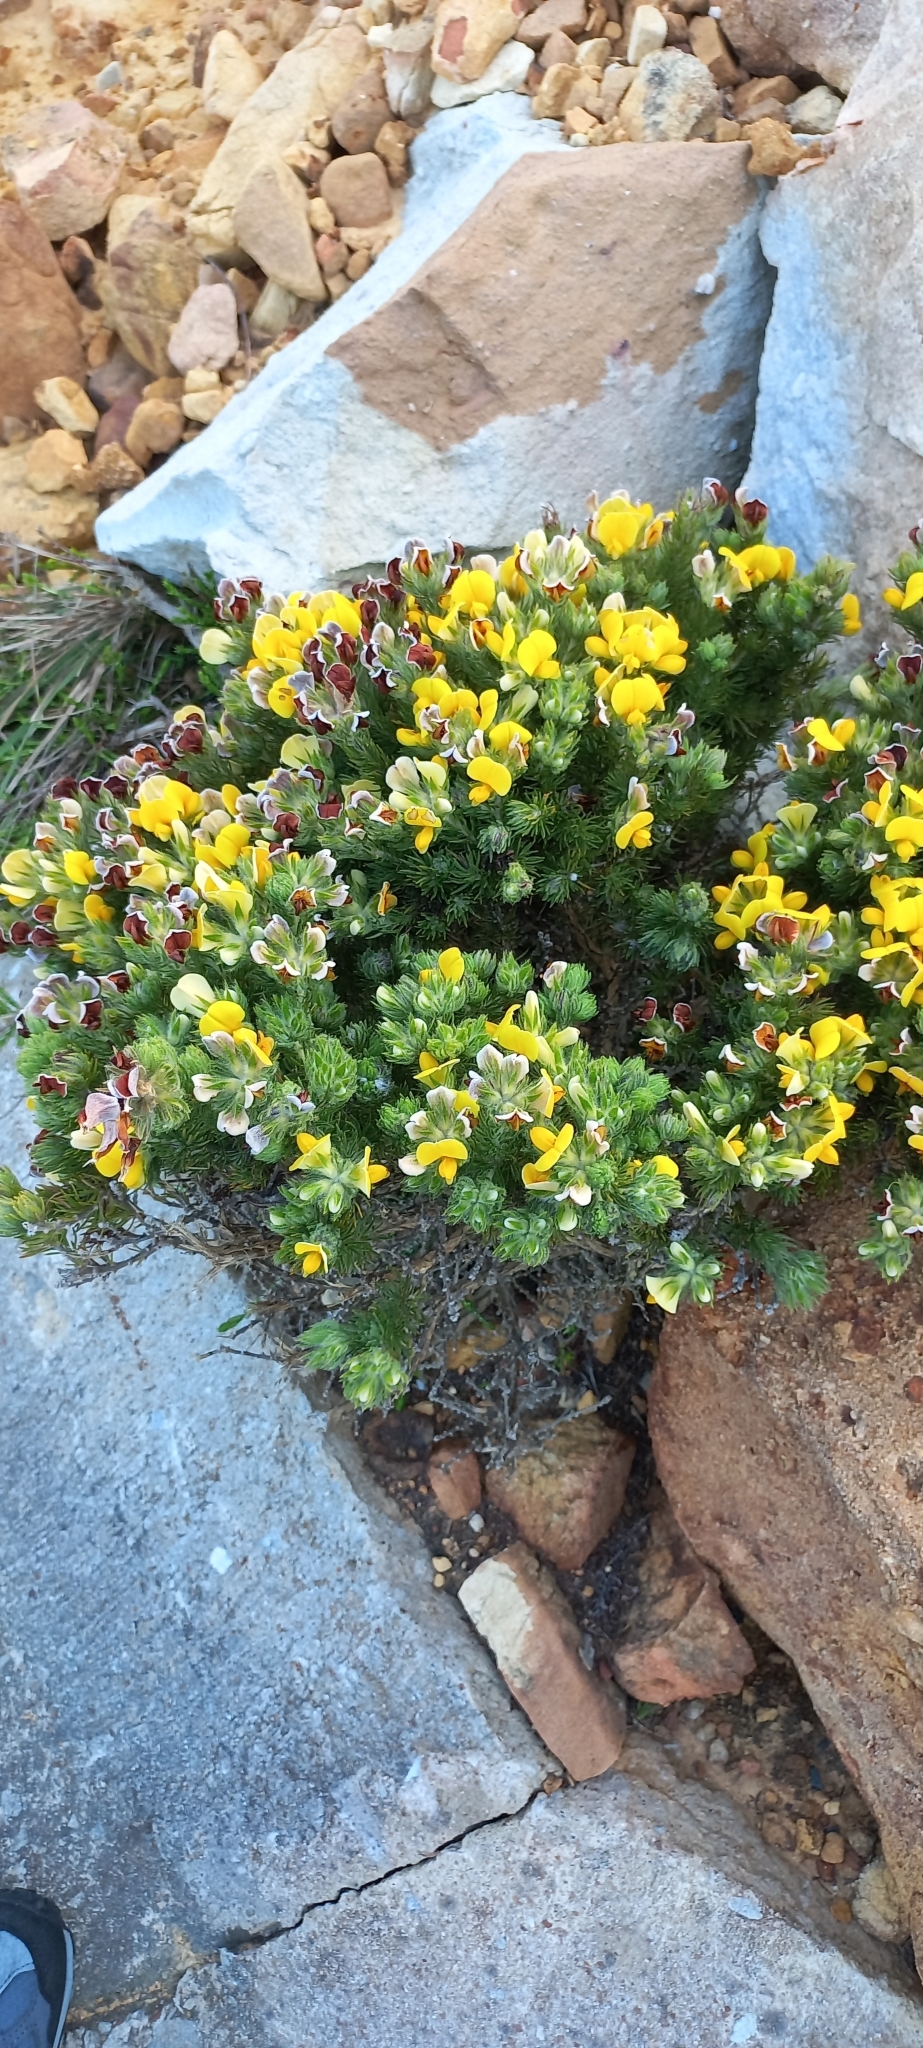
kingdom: Plantae
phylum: Tracheophyta
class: Magnoliopsida
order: Fabales
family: Fabaceae
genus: Aspalathus
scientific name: Aspalathus ciliaris
